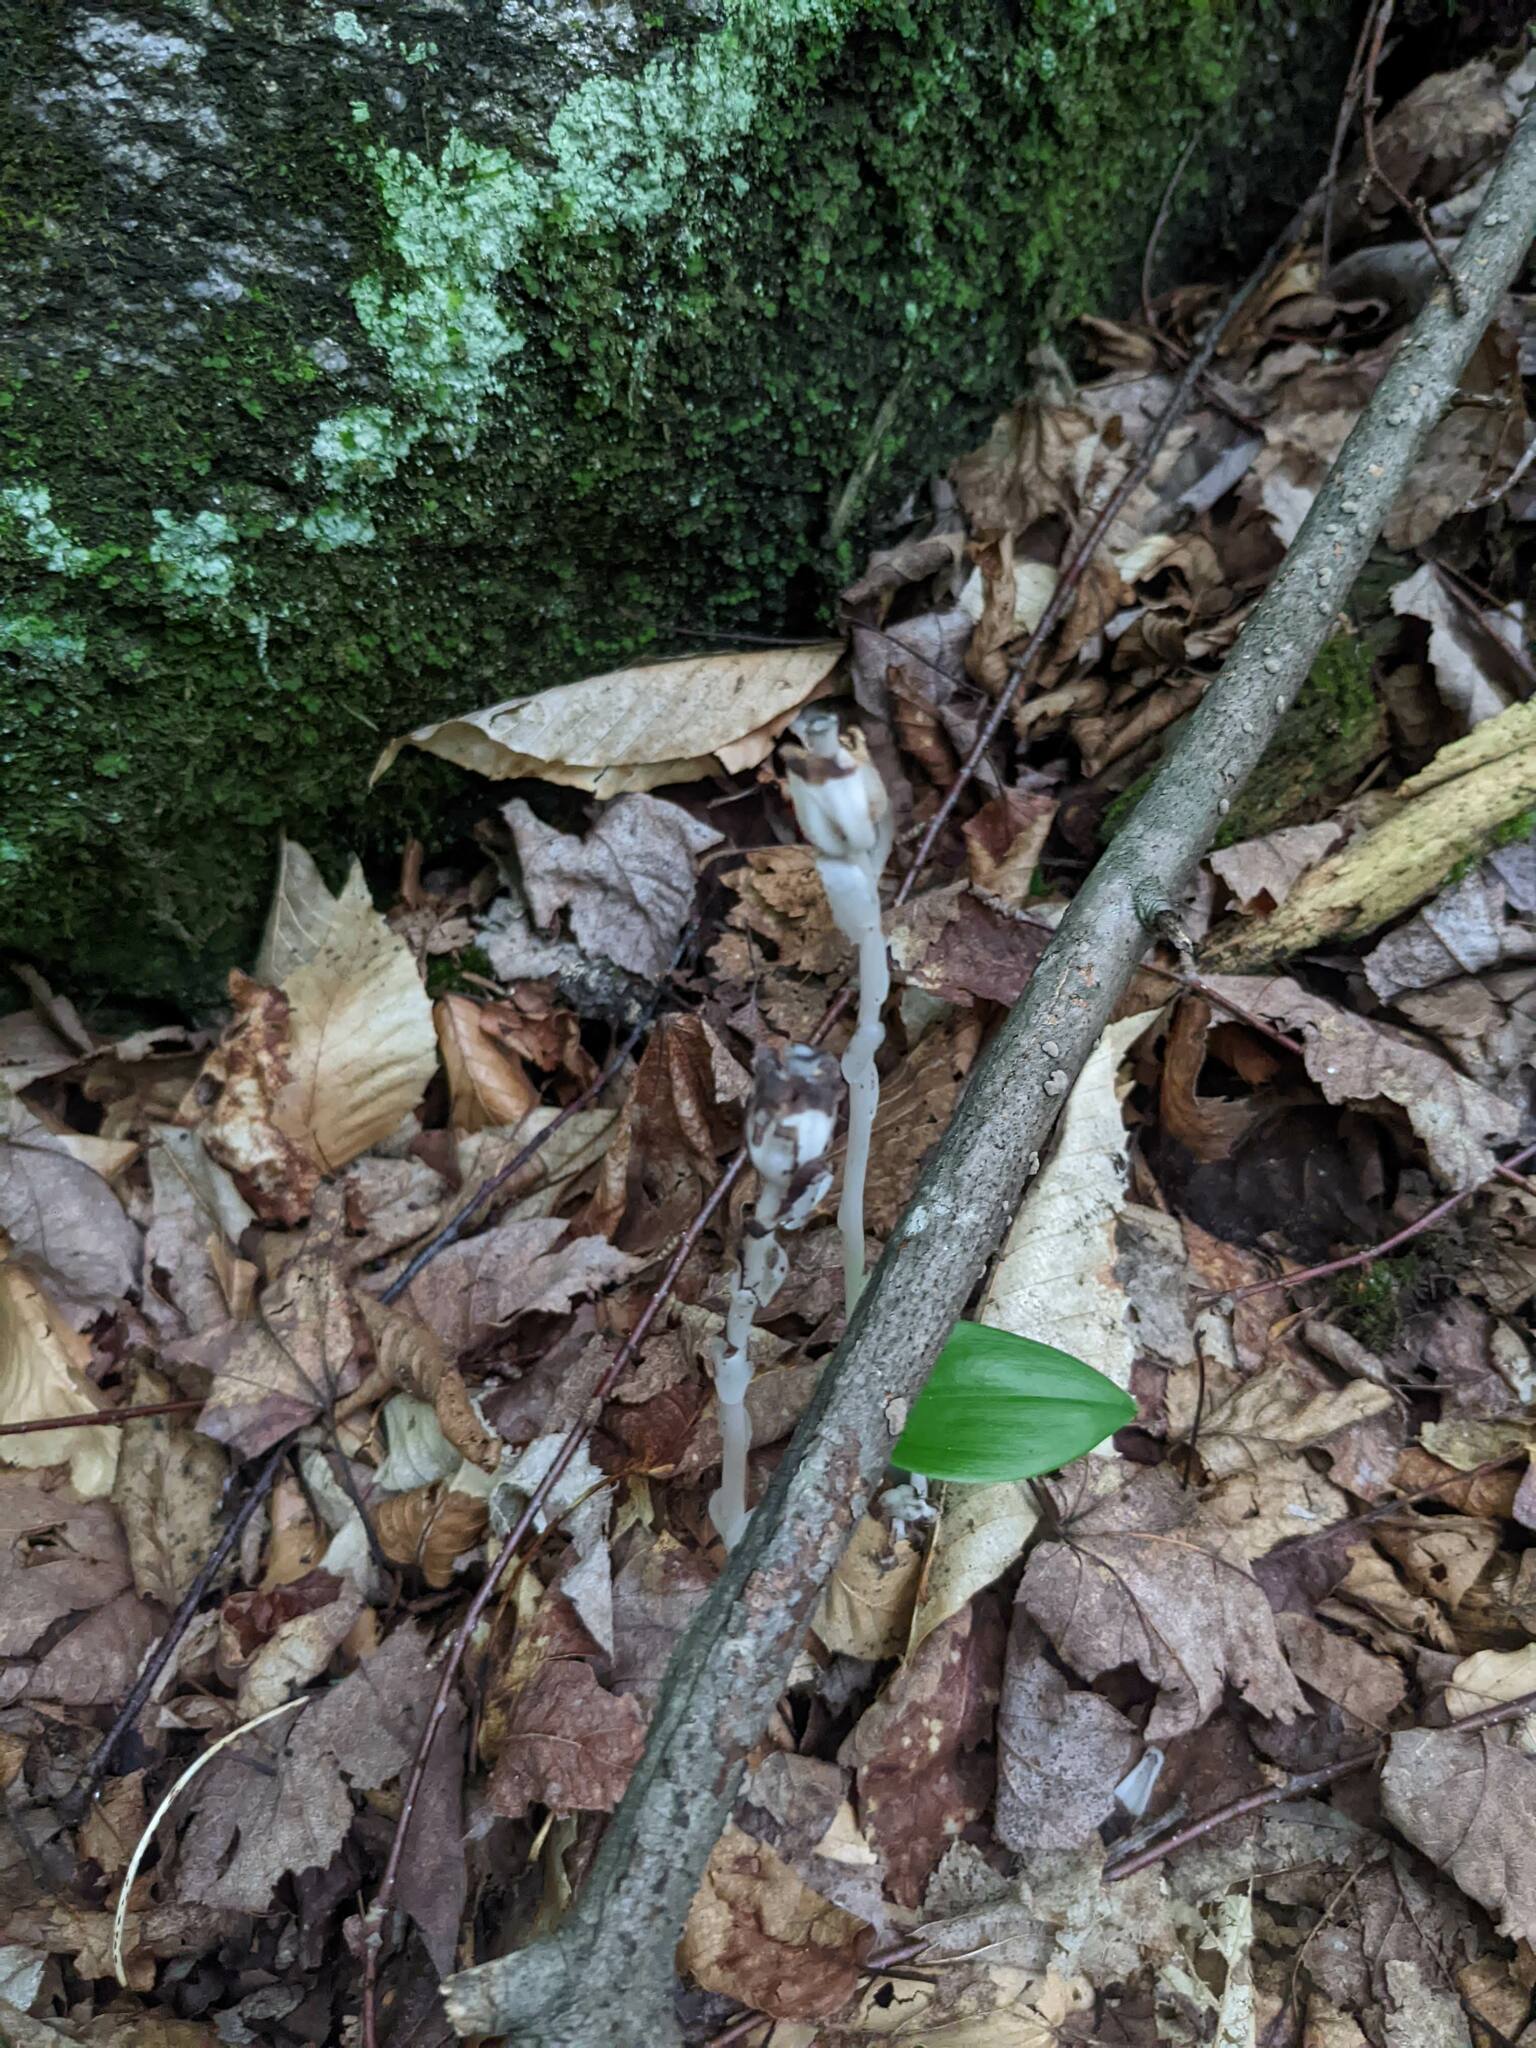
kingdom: Plantae
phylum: Tracheophyta
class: Magnoliopsida
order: Ericales
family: Ericaceae
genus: Monotropa
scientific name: Monotropa uniflora
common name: Convulsion root
